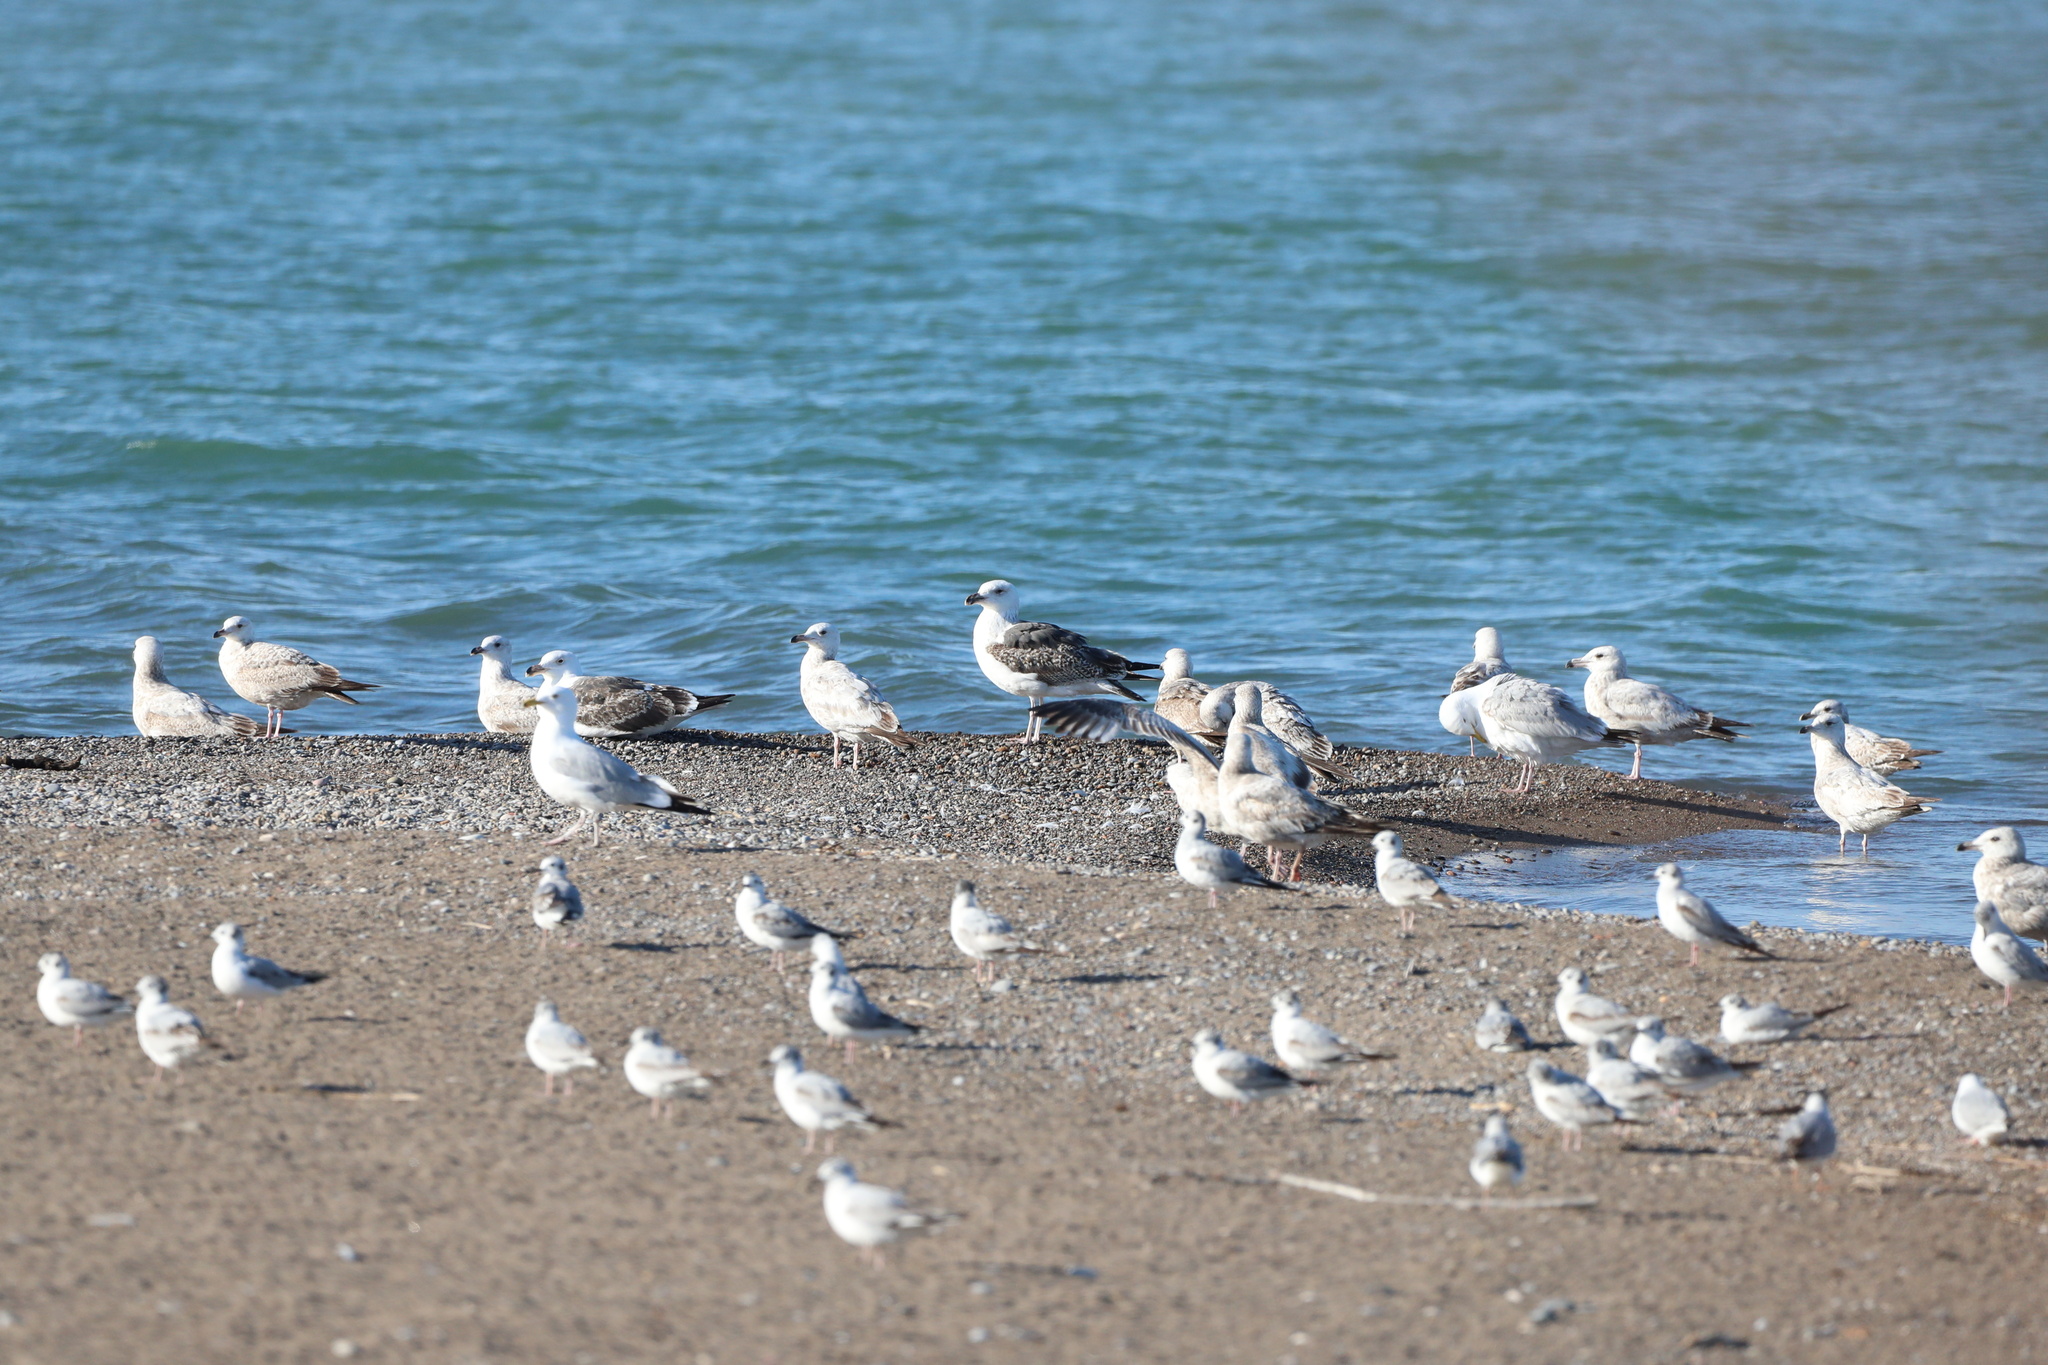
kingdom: Animalia
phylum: Chordata
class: Aves
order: Charadriiformes
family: Laridae
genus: Larus
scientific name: Larus marinus
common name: Great black-backed gull
